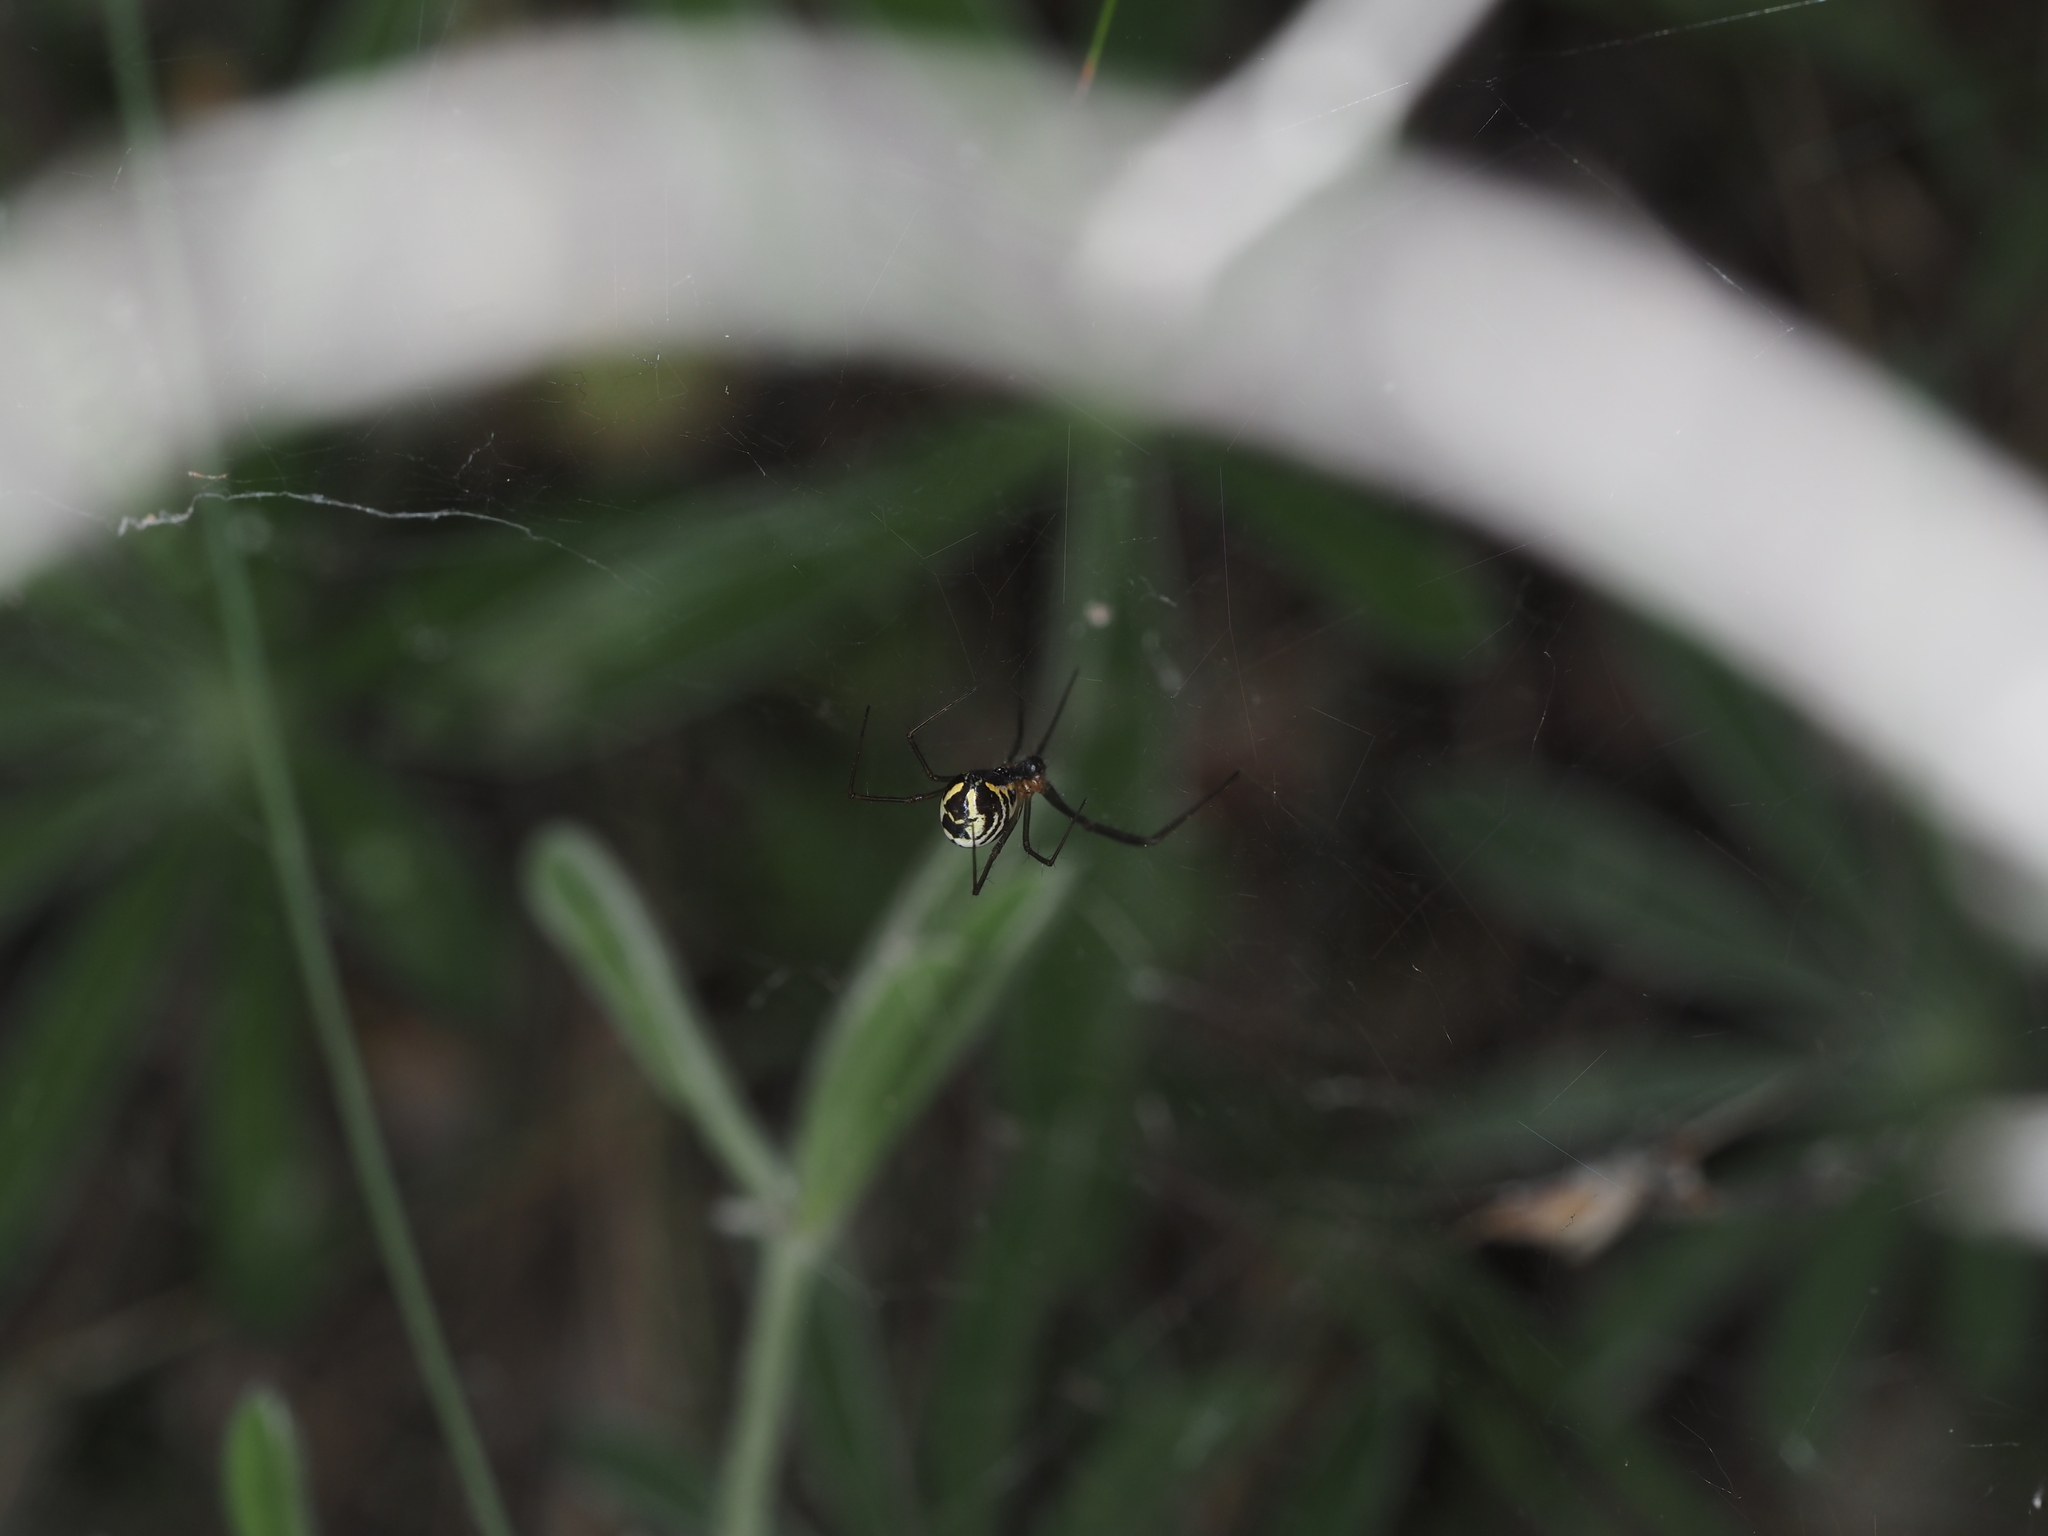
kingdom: Animalia
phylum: Arthropoda
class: Arachnida
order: Araneae
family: Linyphiidae
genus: Neriene
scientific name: Neriene radiata
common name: Filmy dome spider
